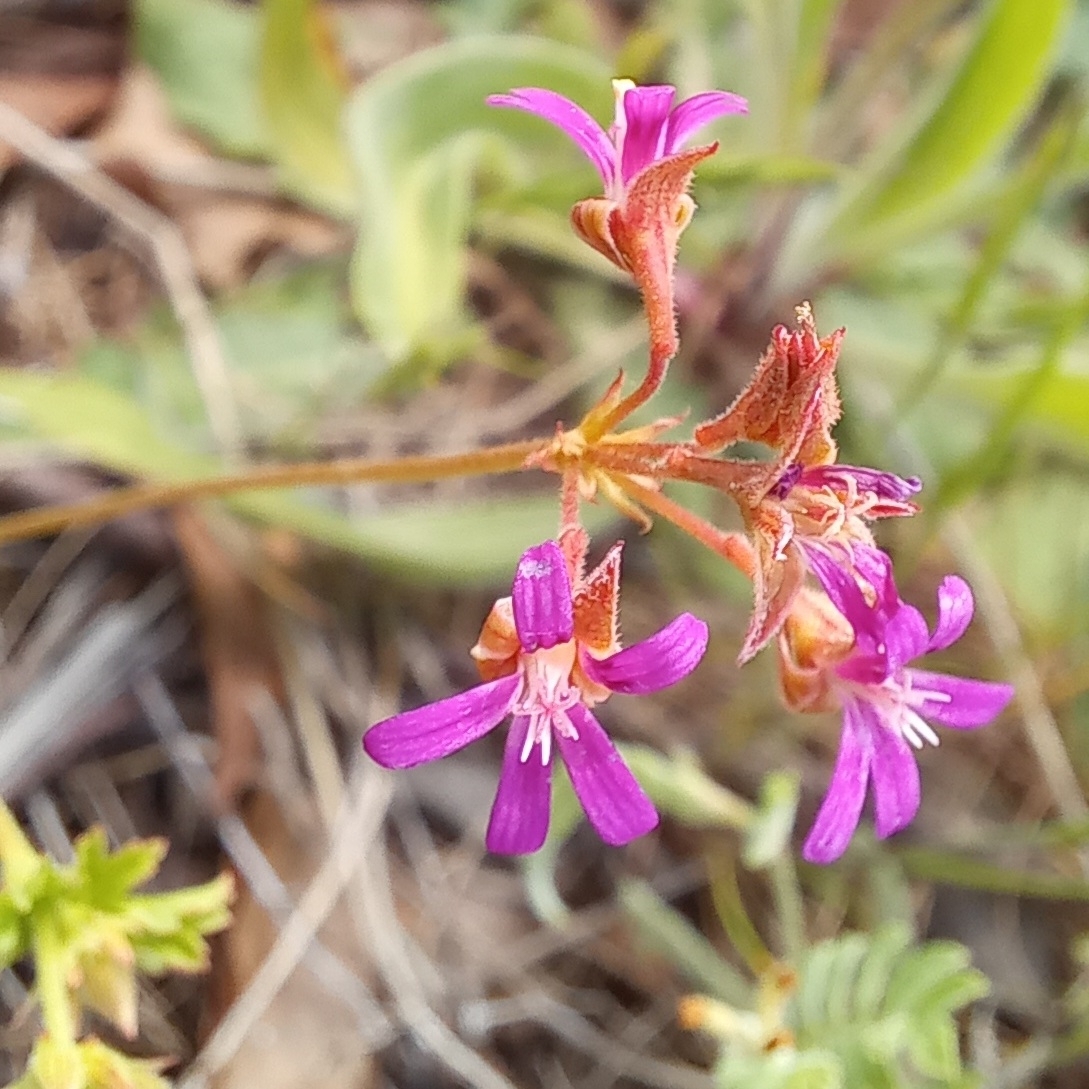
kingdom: Plantae
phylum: Tracheophyta
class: Magnoliopsida
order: Geraniales
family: Geraniaceae
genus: Pelargonium
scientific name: Pelargonium grossularioides
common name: Gooseberry geranium
